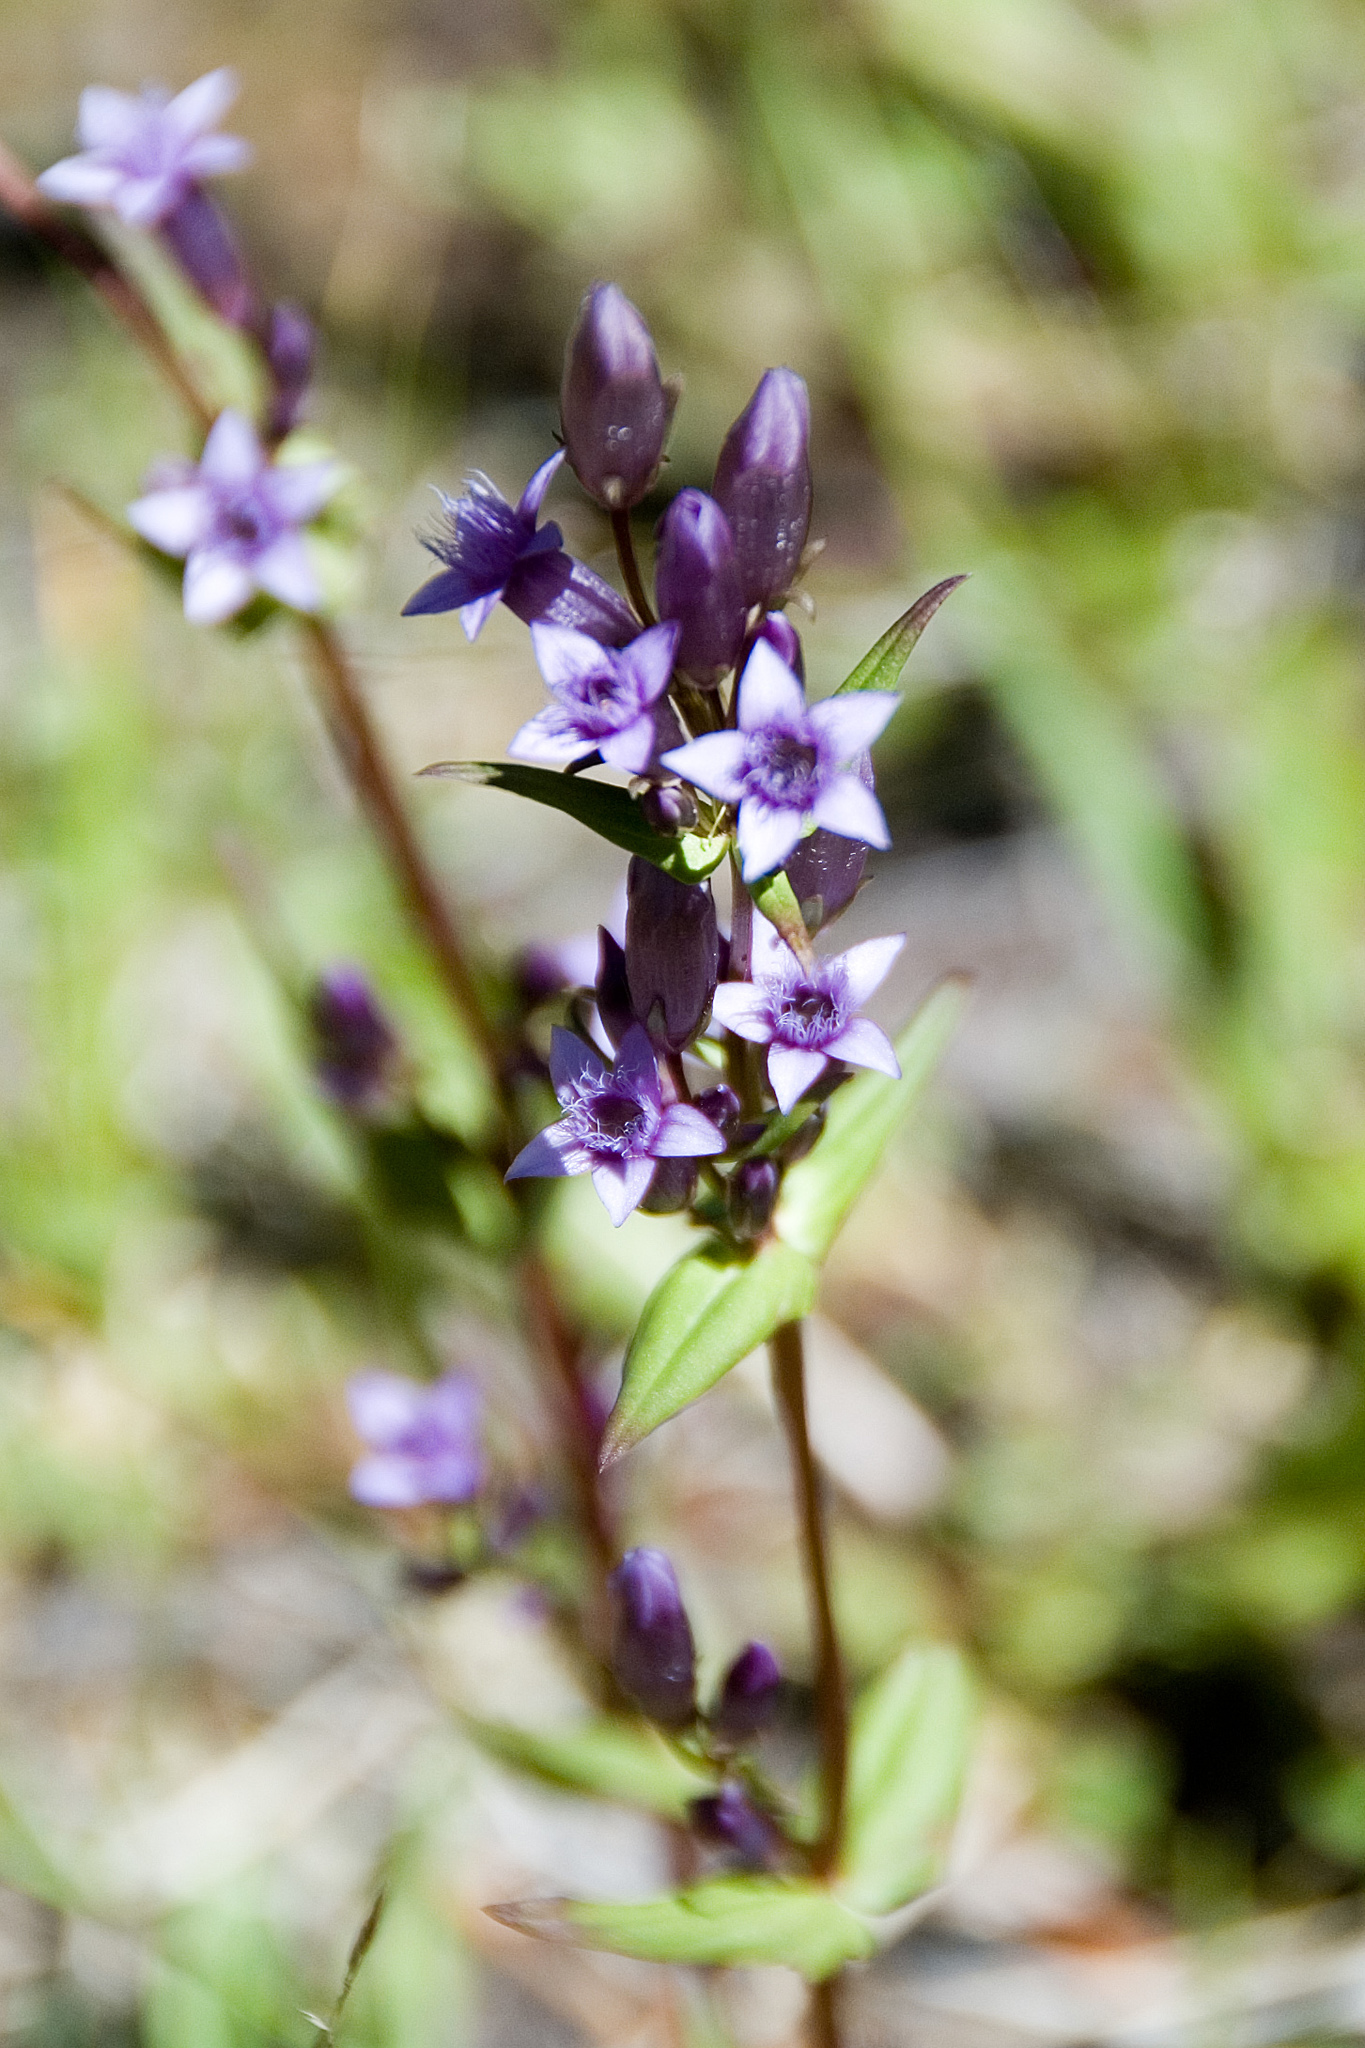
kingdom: Plantae
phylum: Tracheophyta
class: Magnoliopsida
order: Gentianales
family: Gentianaceae
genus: Gentianella
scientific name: Gentianella amarella
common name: Autumn gentian
